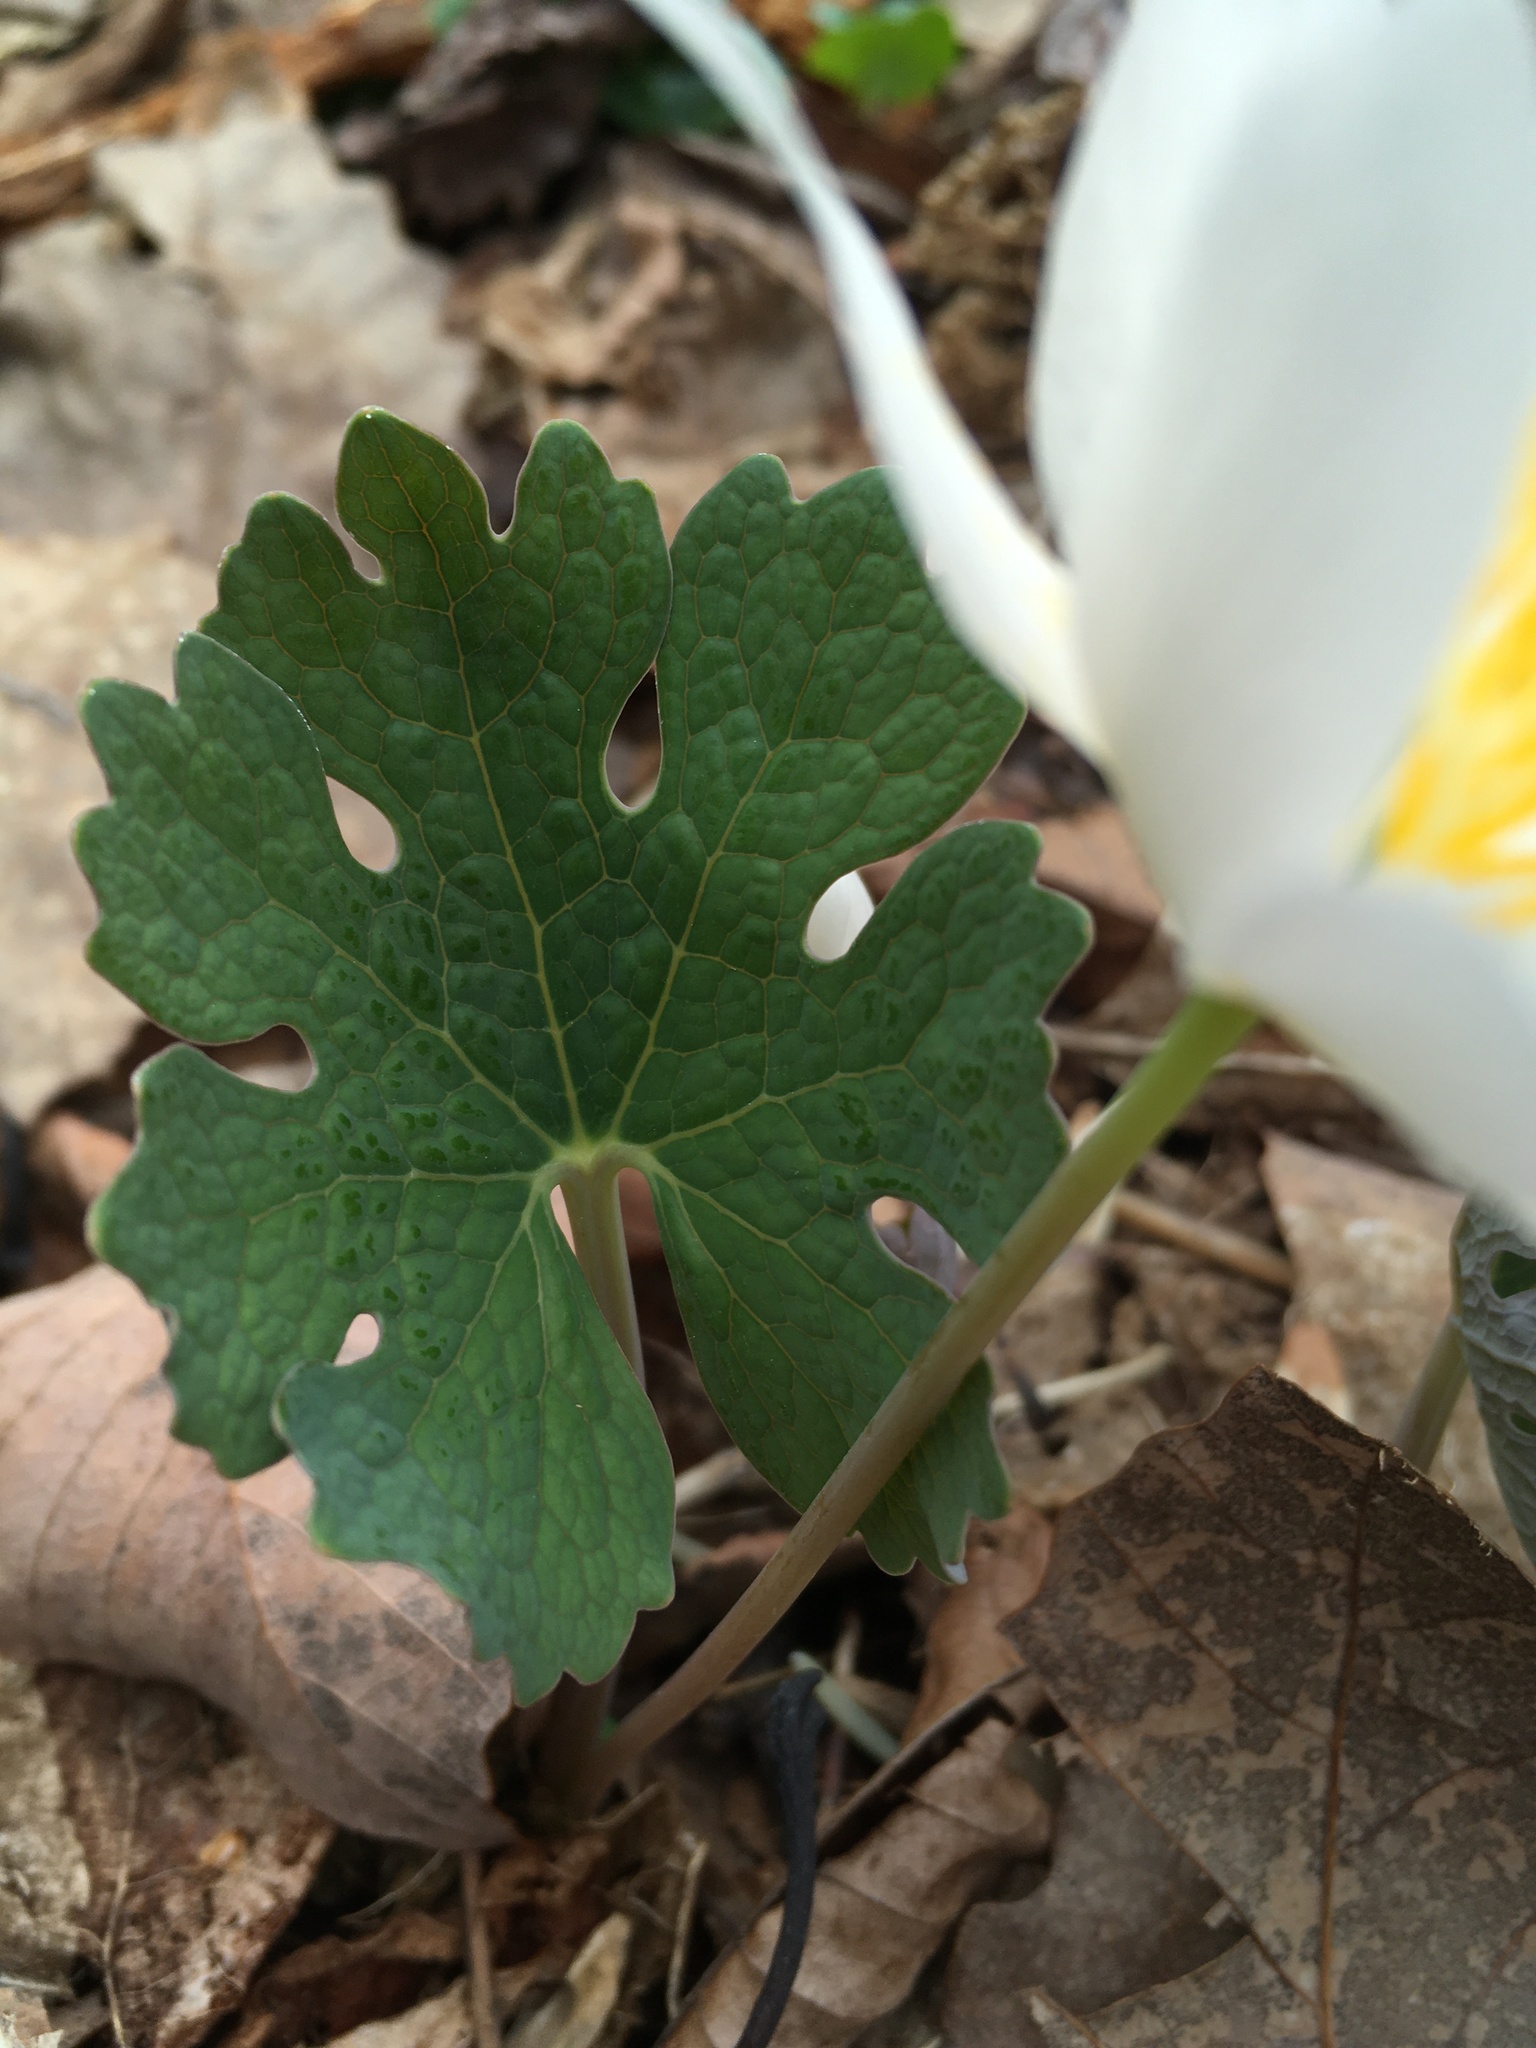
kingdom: Plantae
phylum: Tracheophyta
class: Magnoliopsida
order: Ranunculales
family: Papaveraceae
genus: Sanguinaria
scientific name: Sanguinaria canadensis
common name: Bloodroot
